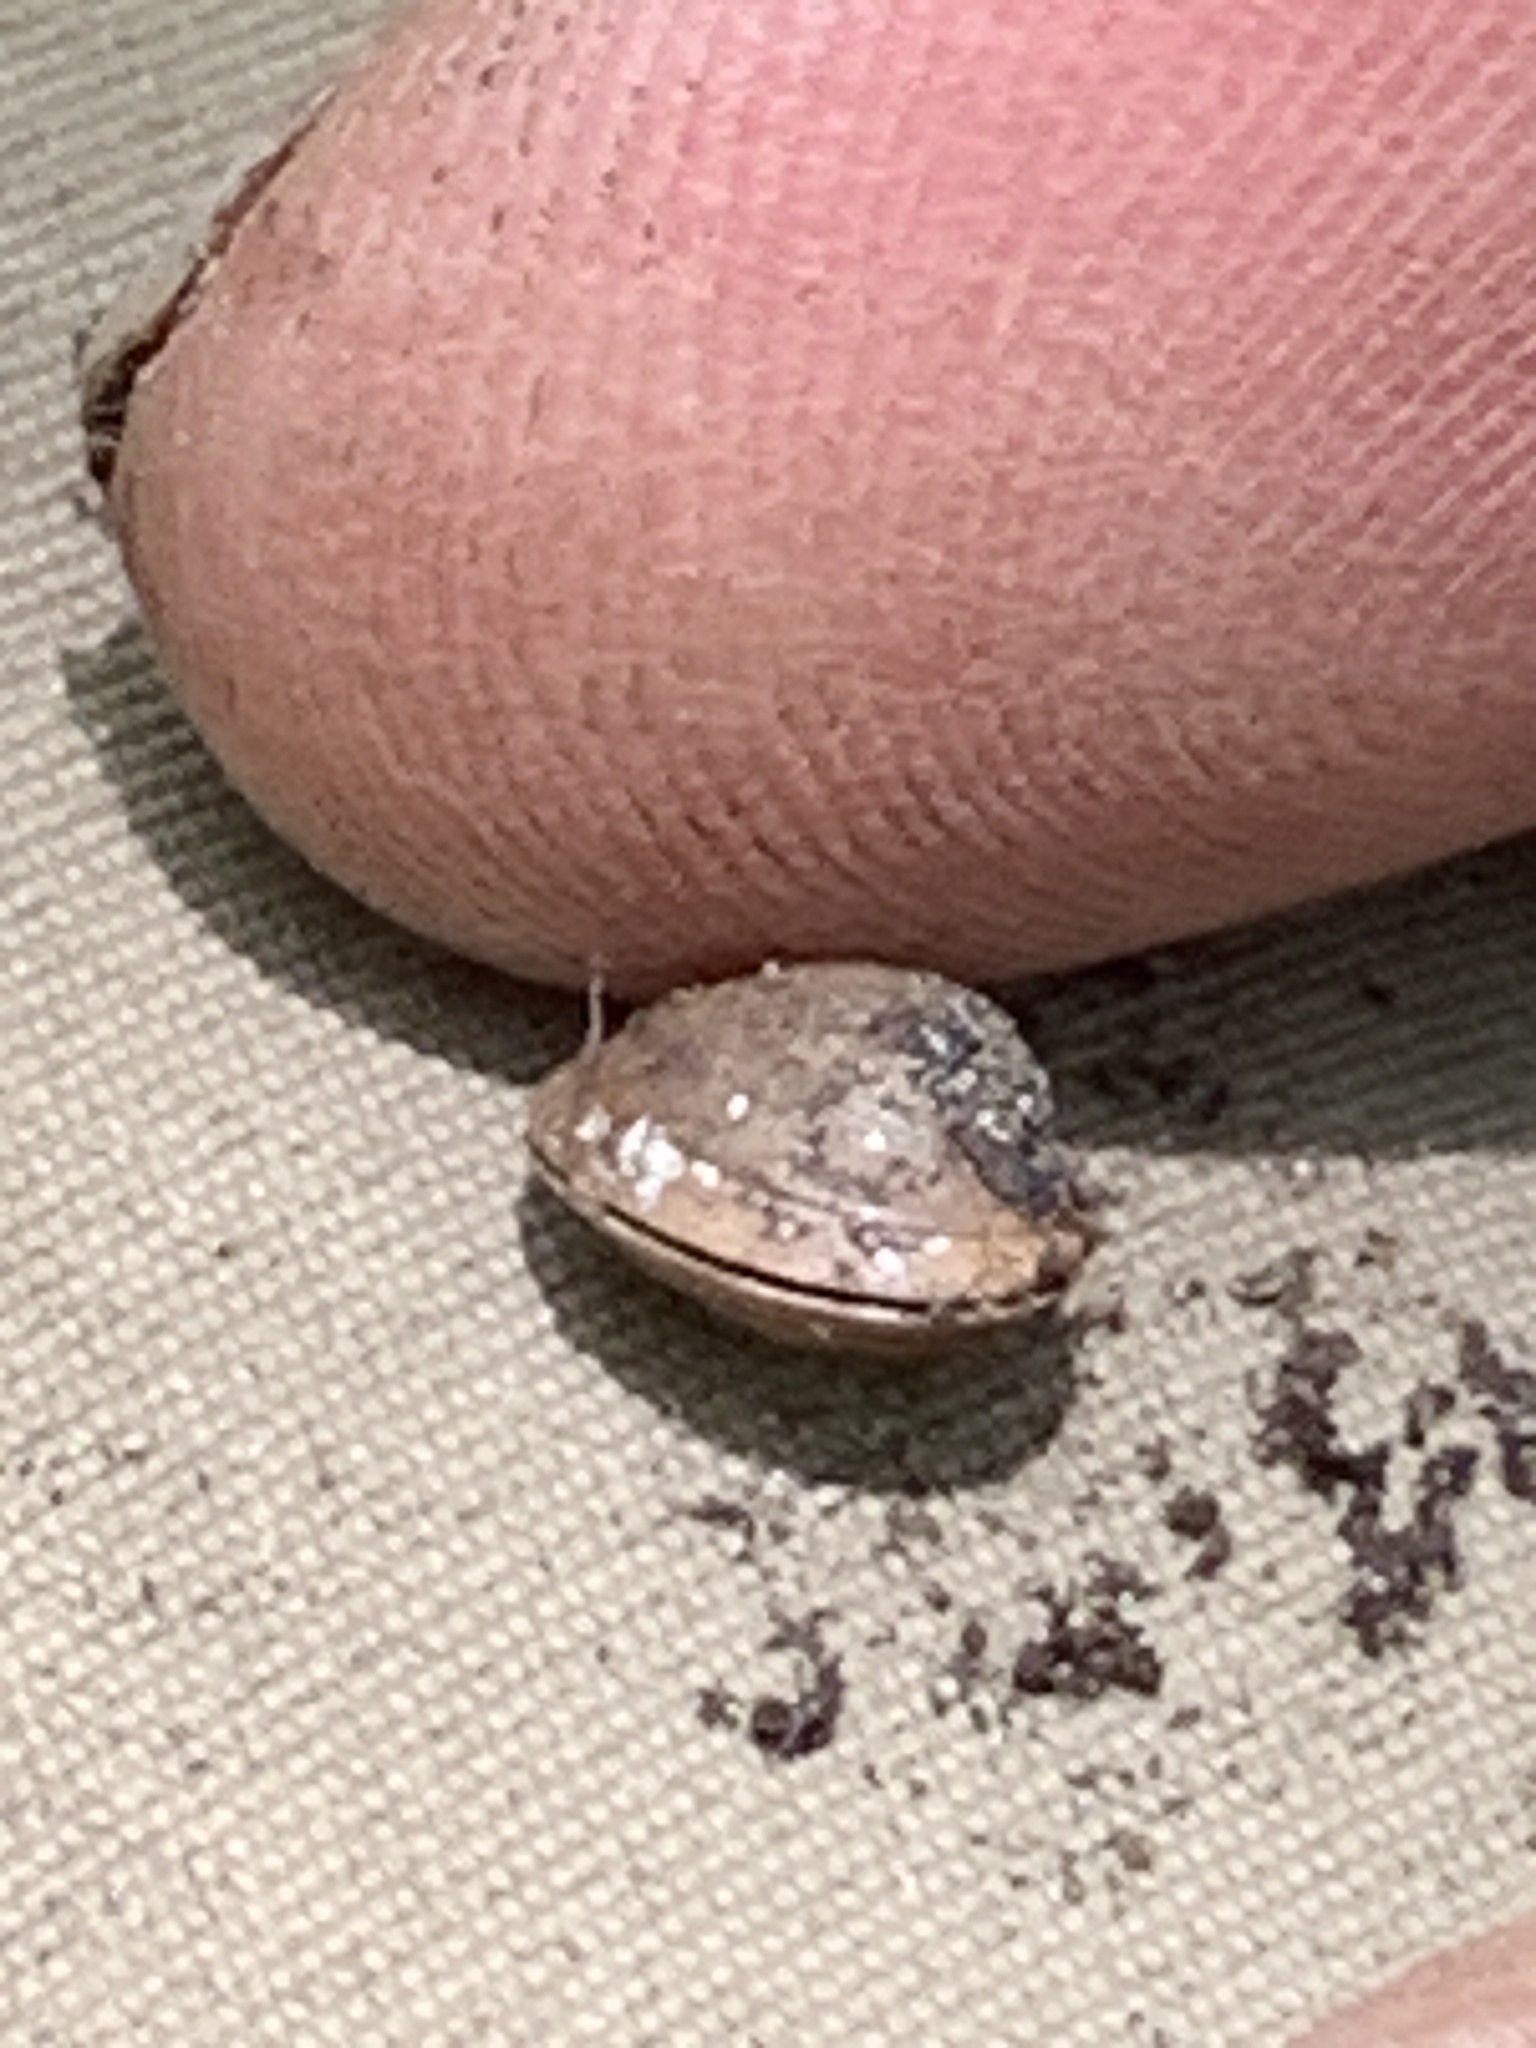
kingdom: Animalia
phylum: Mollusca
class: Bivalvia
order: Sphaeriida
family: Sphaeriidae
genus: Sphaerium
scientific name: Sphaerium occidentale
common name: Herrington fingernailclam
